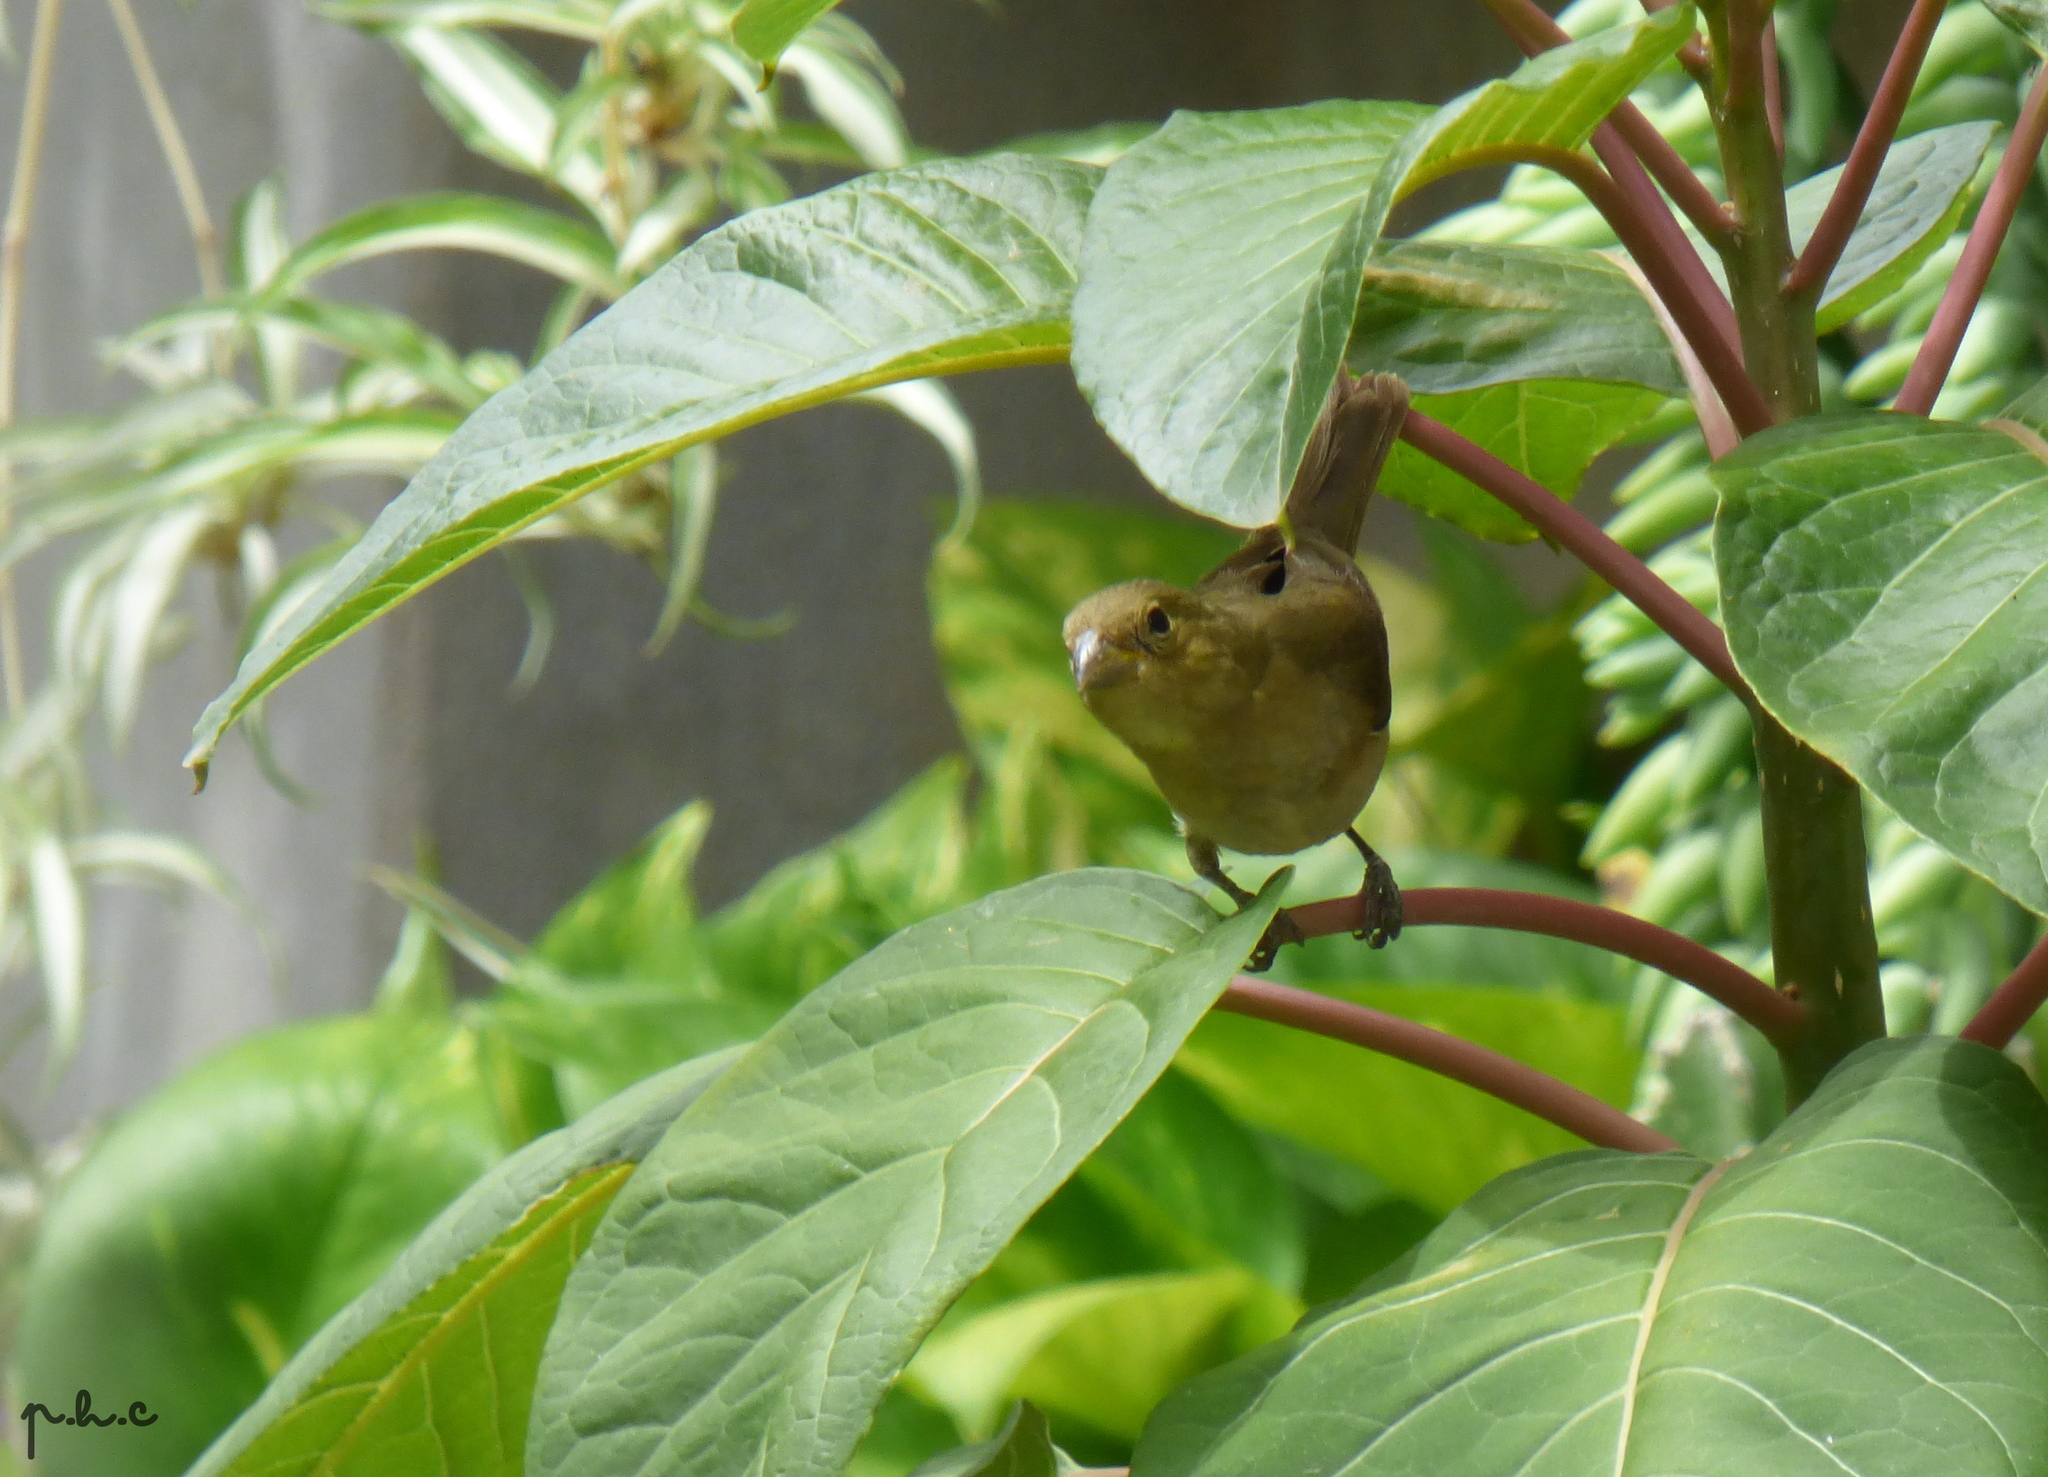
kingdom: Animalia
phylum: Chordata
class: Aves
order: Passeriformes
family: Thraupidae
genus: Sporophila
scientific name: Sporophila caerulescens
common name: Double-collared seedeater
